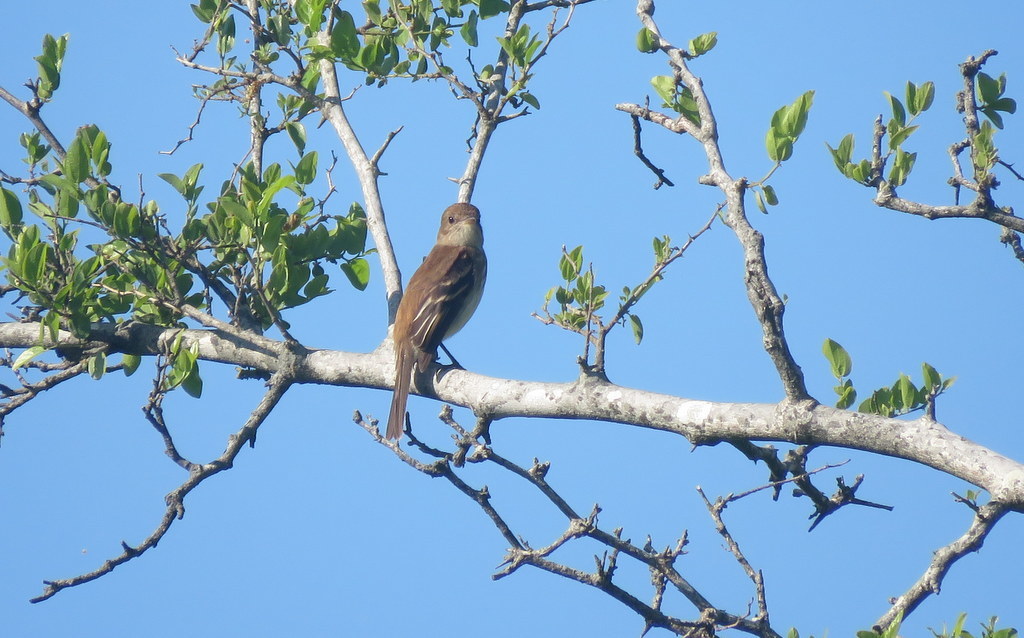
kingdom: Animalia
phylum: Chordata
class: Aves
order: Passeriformes
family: Tyrannidae
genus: Myiophobus
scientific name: Myiophobus fasciatus
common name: Bran-colored flycatcher
